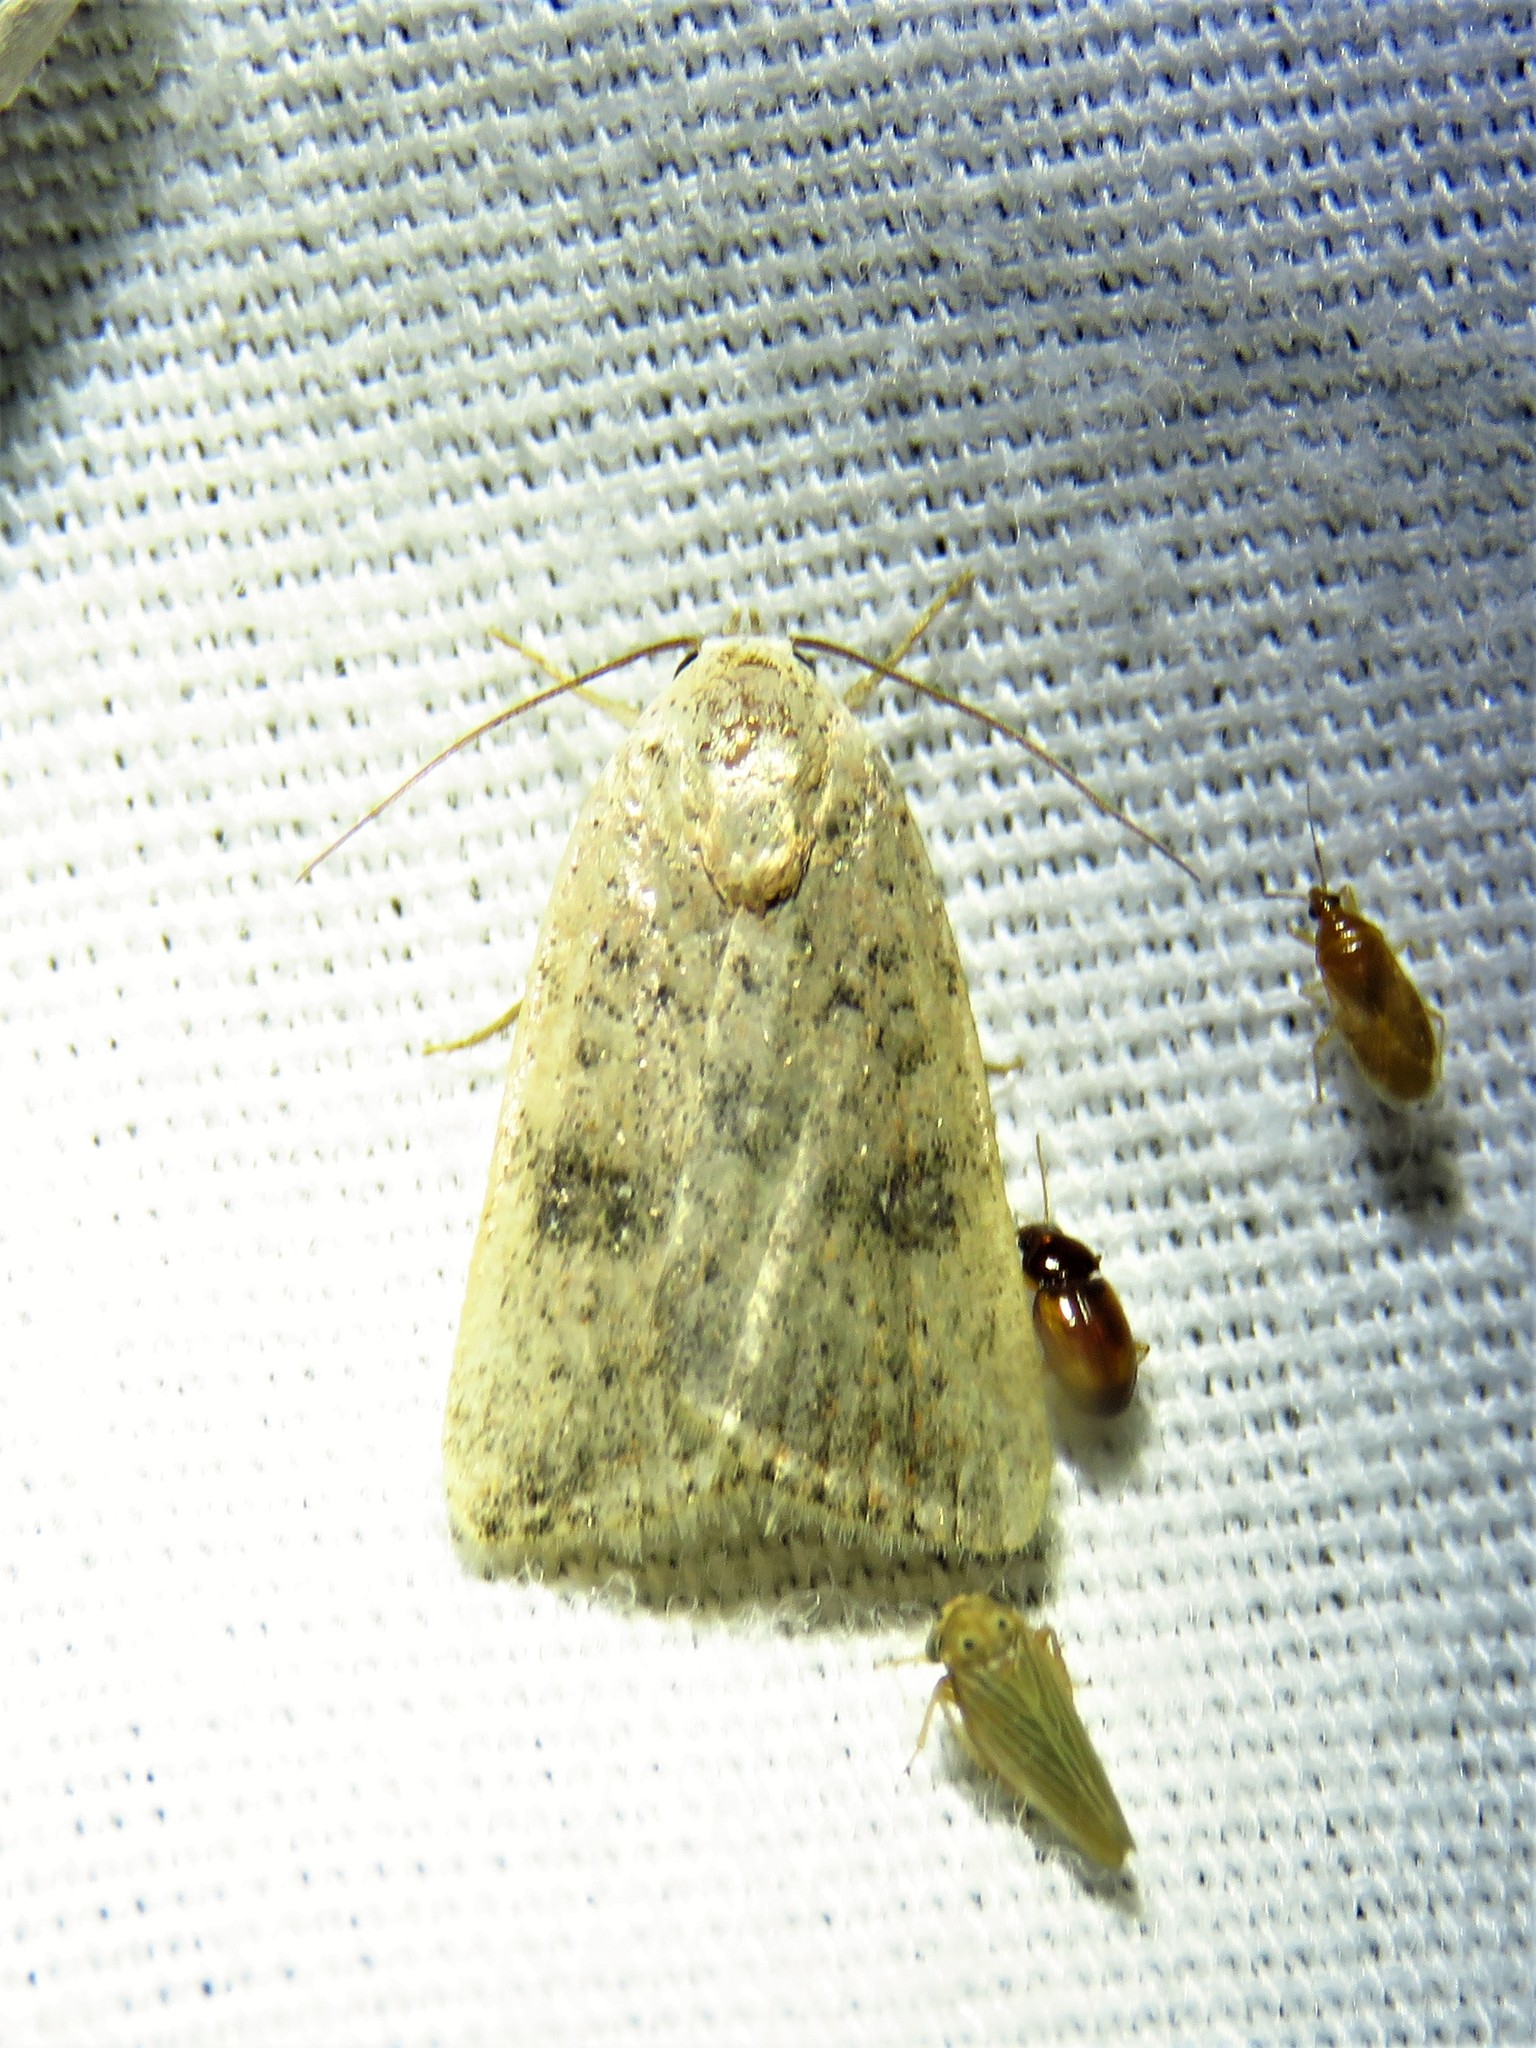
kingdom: Animalia
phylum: Arthropoda
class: Insecta
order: Lepidoptera
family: Noctuidae
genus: Micrathetis
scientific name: Micrathetis triplex
